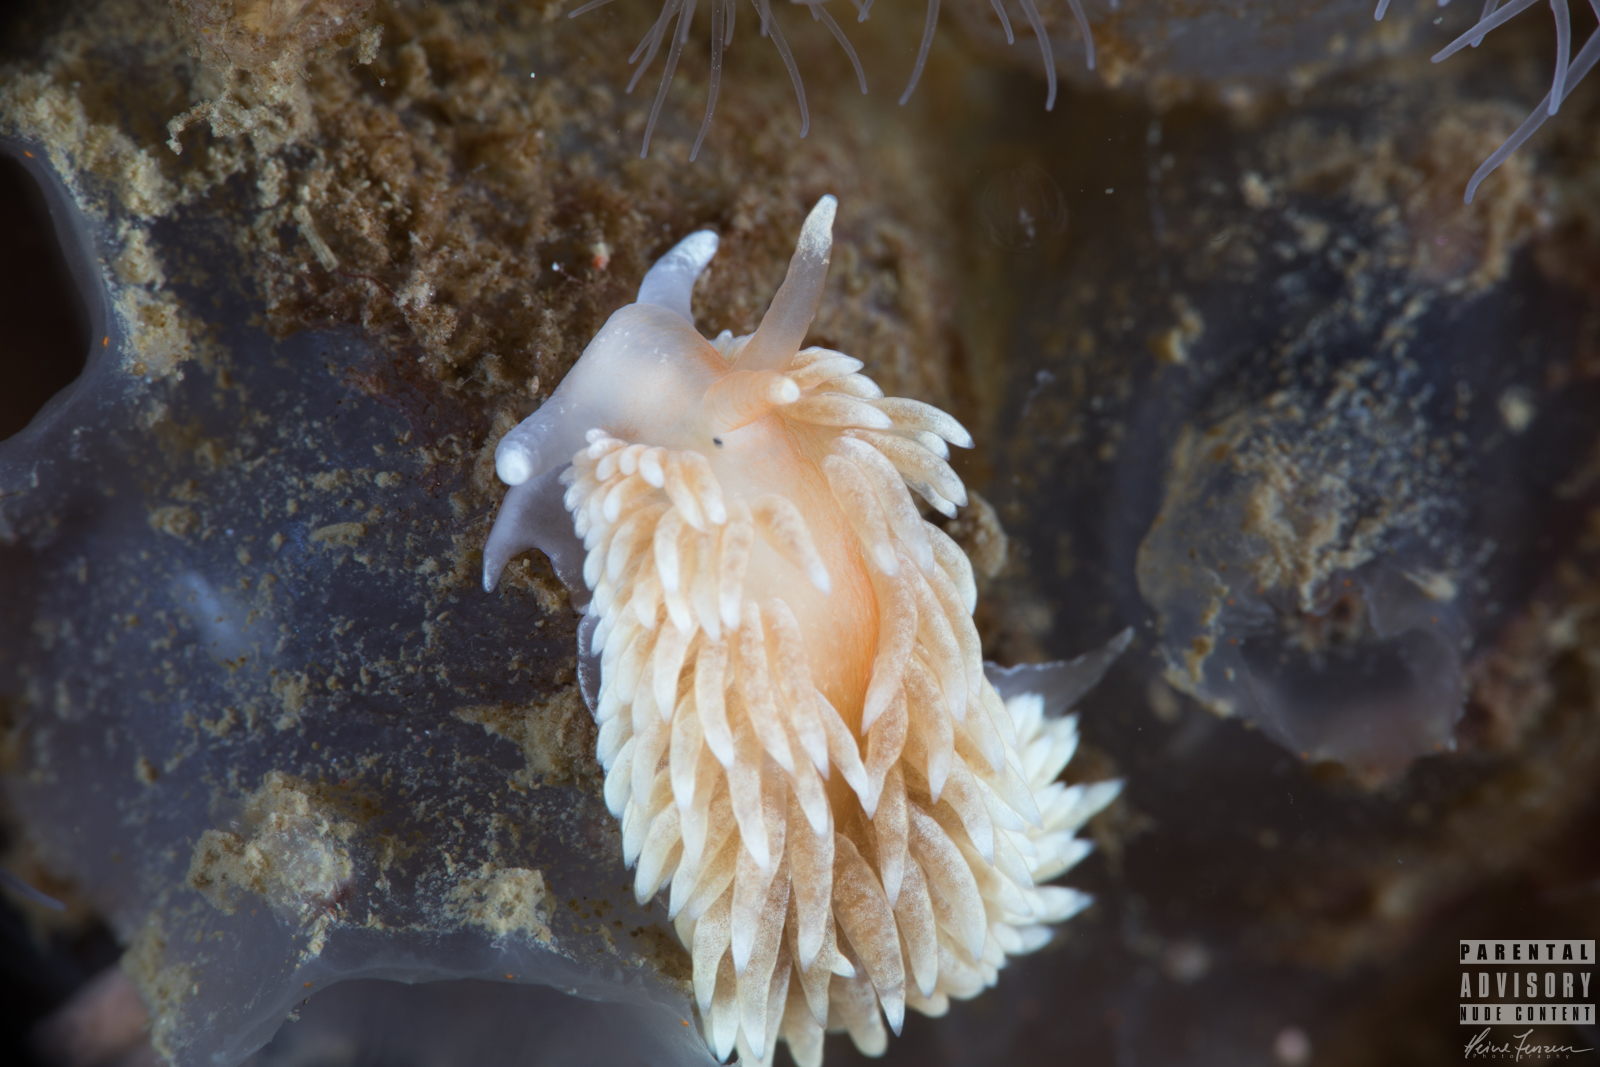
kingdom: Animalia
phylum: Mollusca
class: Gastropoda
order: Nudibranchia
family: Aeolidiidae
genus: Aeolidiella
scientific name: Aeolidiella glauca
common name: Orange-brown aeolid
